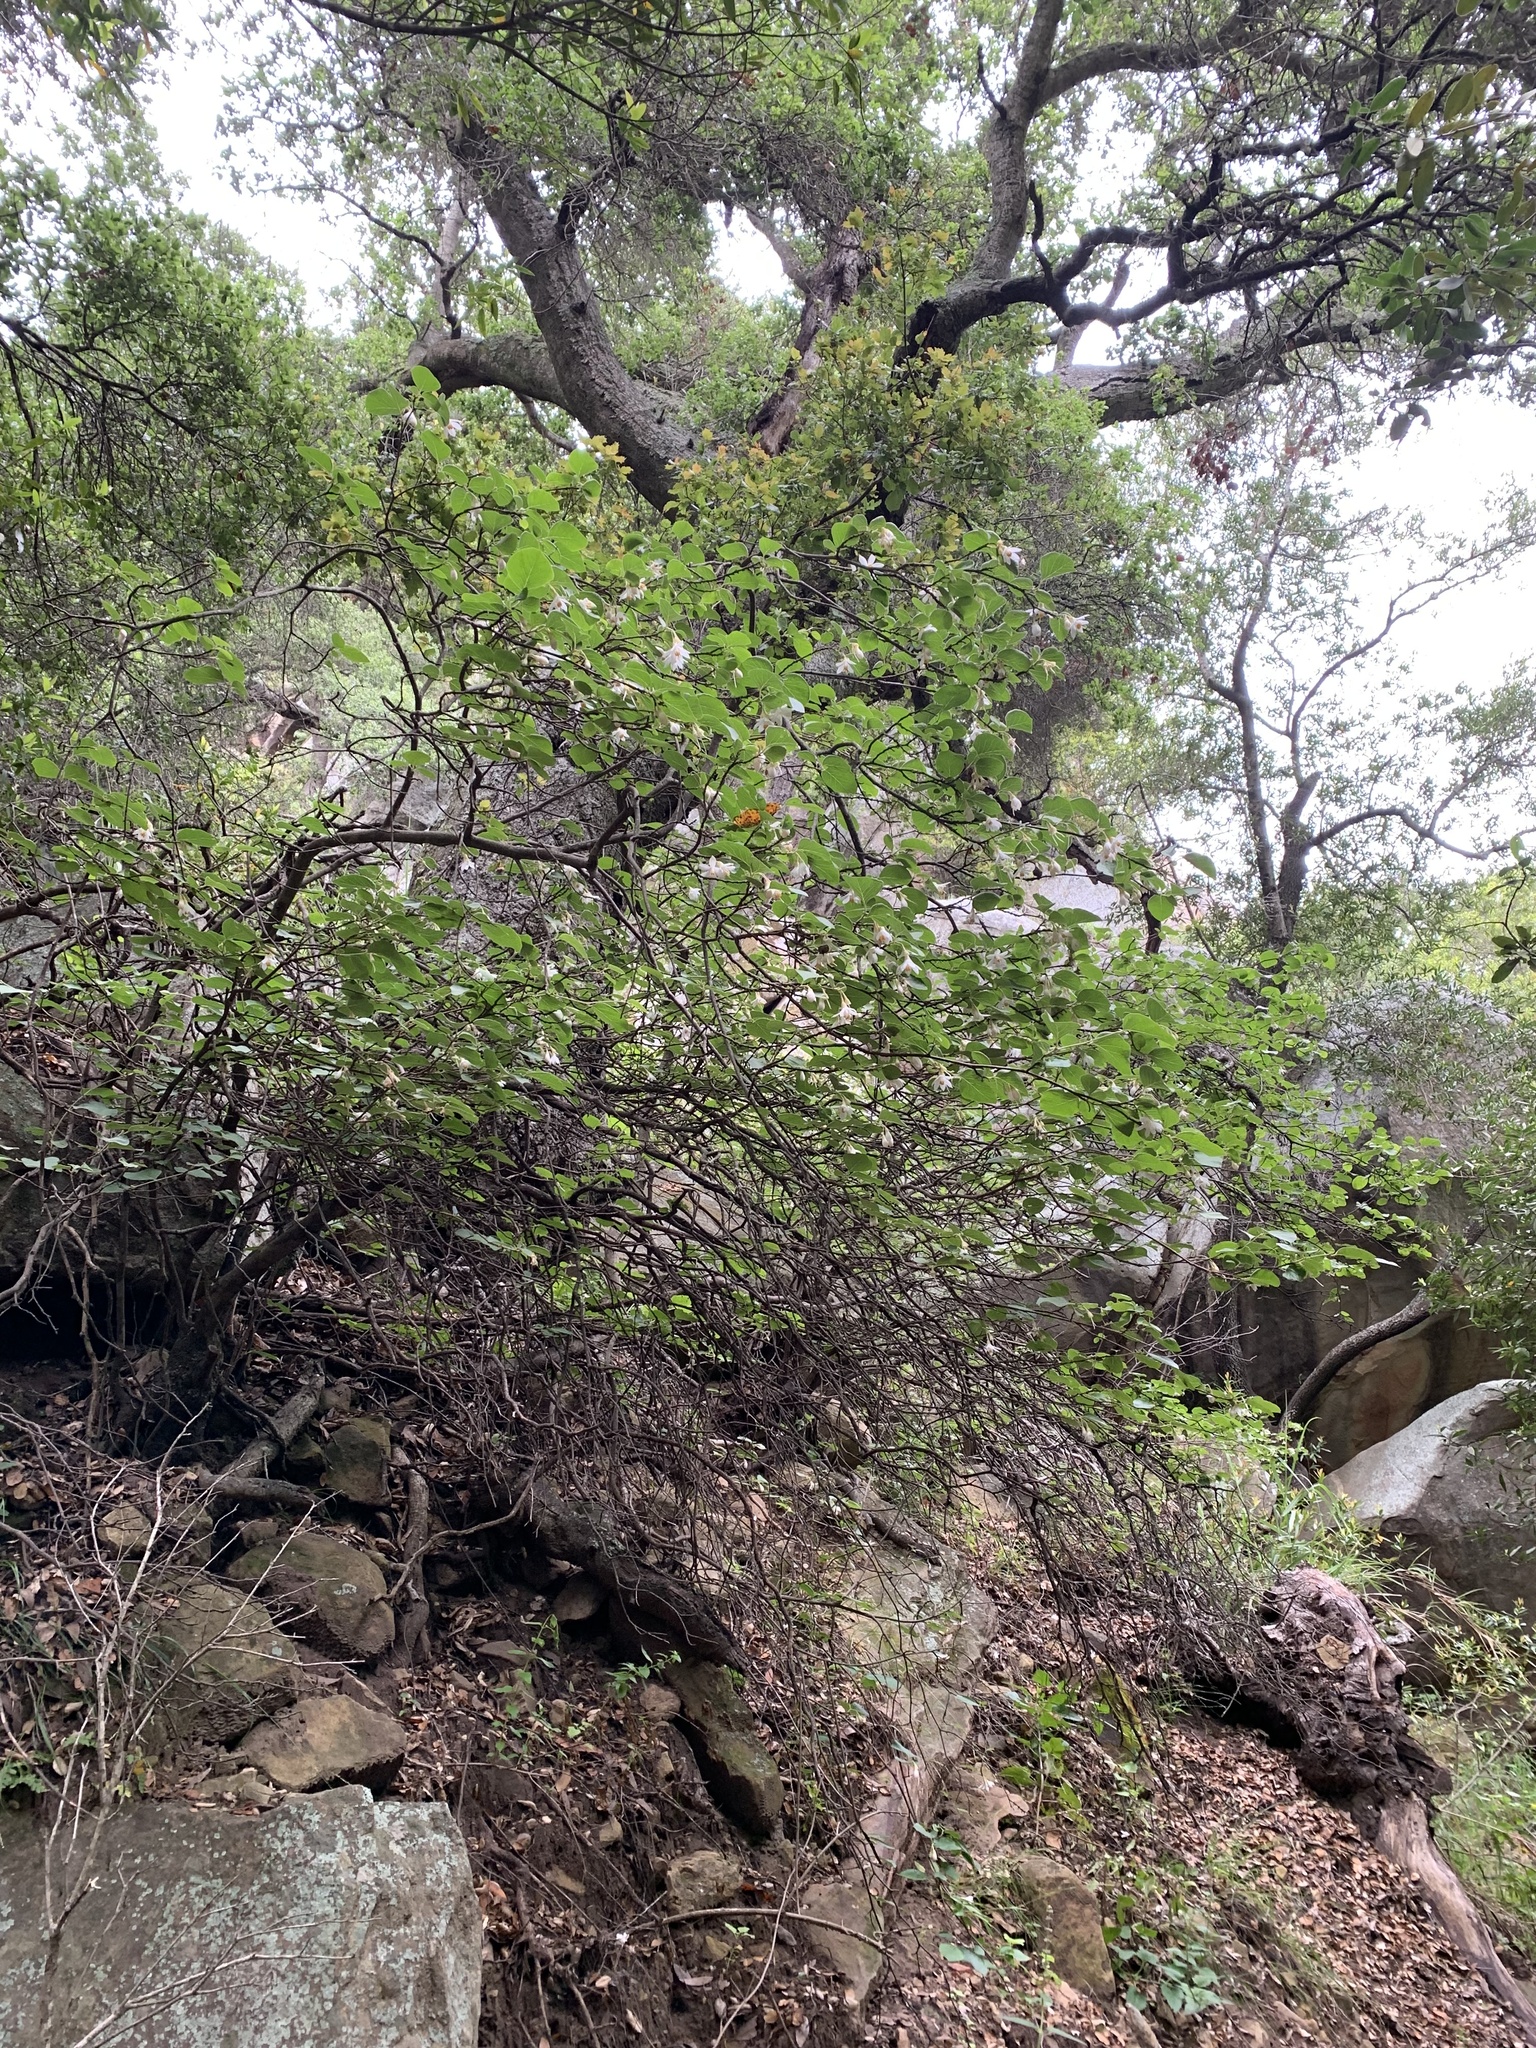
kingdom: Plantae
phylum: Tracheophyta
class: Magnoliopsida
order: Ericales
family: Styracaceae
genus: Styrax
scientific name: Styrax redivivus
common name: California styrax
